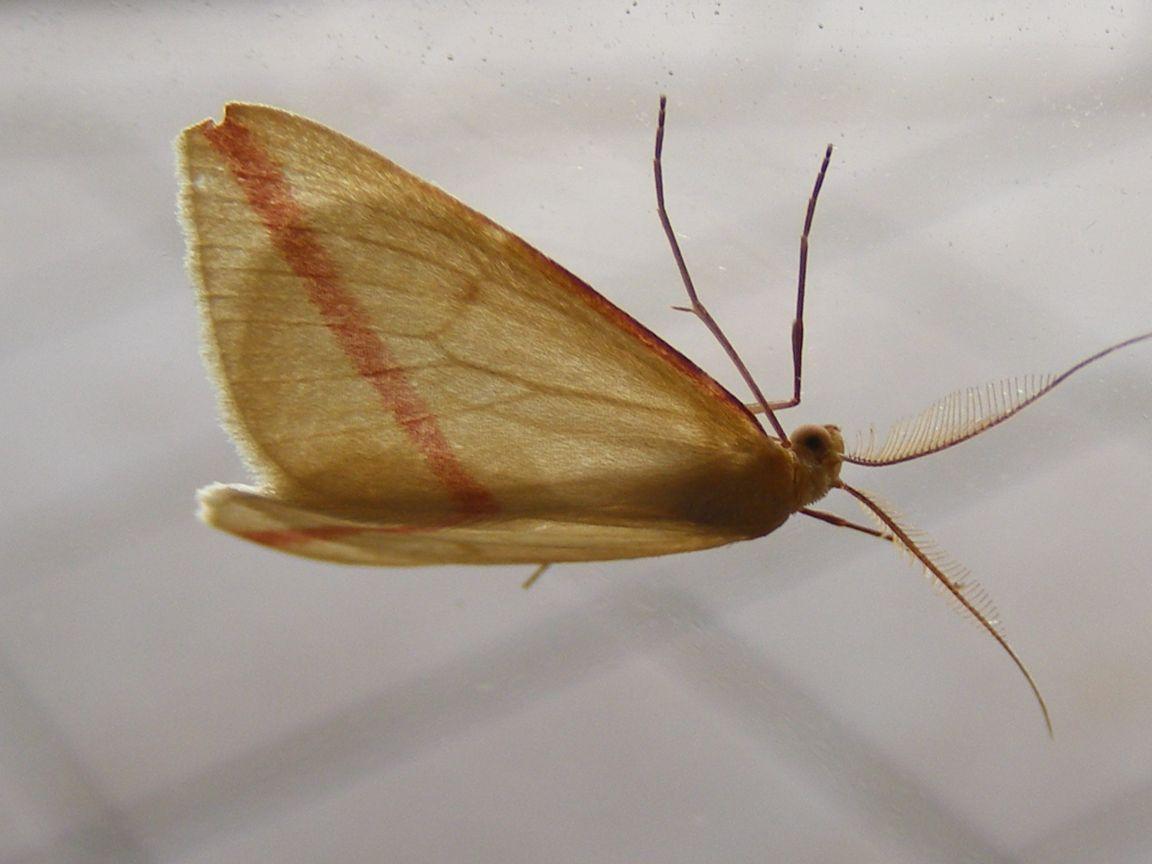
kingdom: Animalia
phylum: Arthropoda
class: Insecta
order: Lepidoptera
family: Geometridae
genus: Rhodometra
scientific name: Rhodometra sacraria
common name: Vestal
